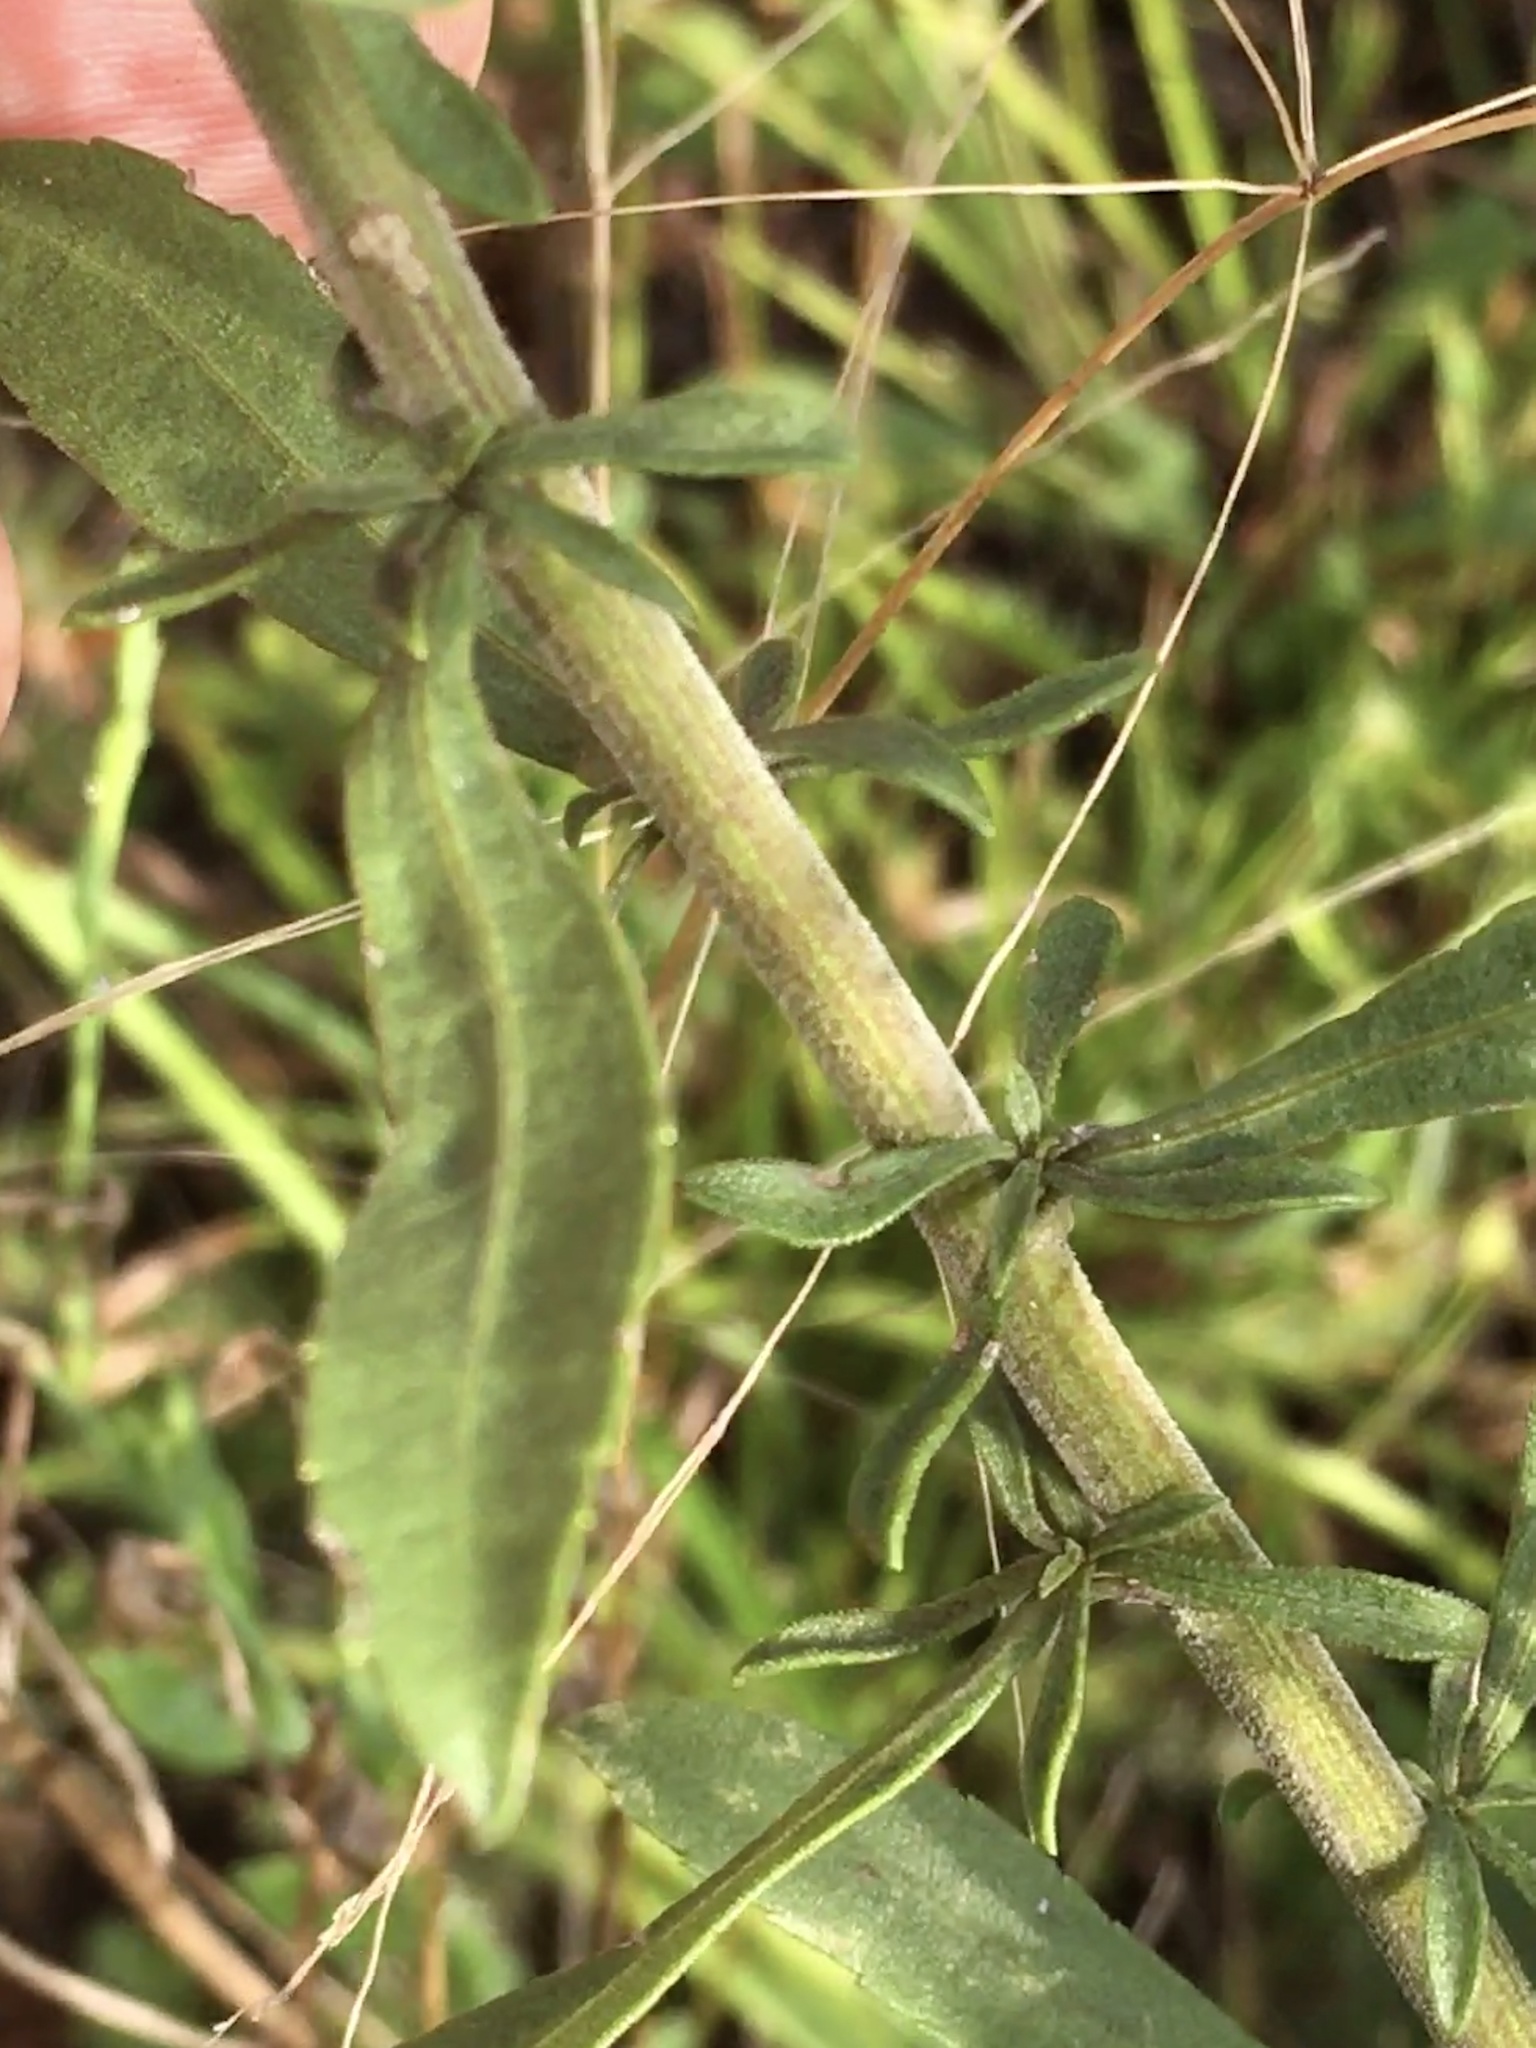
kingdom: Plantae
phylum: Tracheophyta
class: Magnoliopsida
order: Asterales
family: Asteraceae
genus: Solidago
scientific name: Solidago nemoralis
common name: Grey goldenrod
